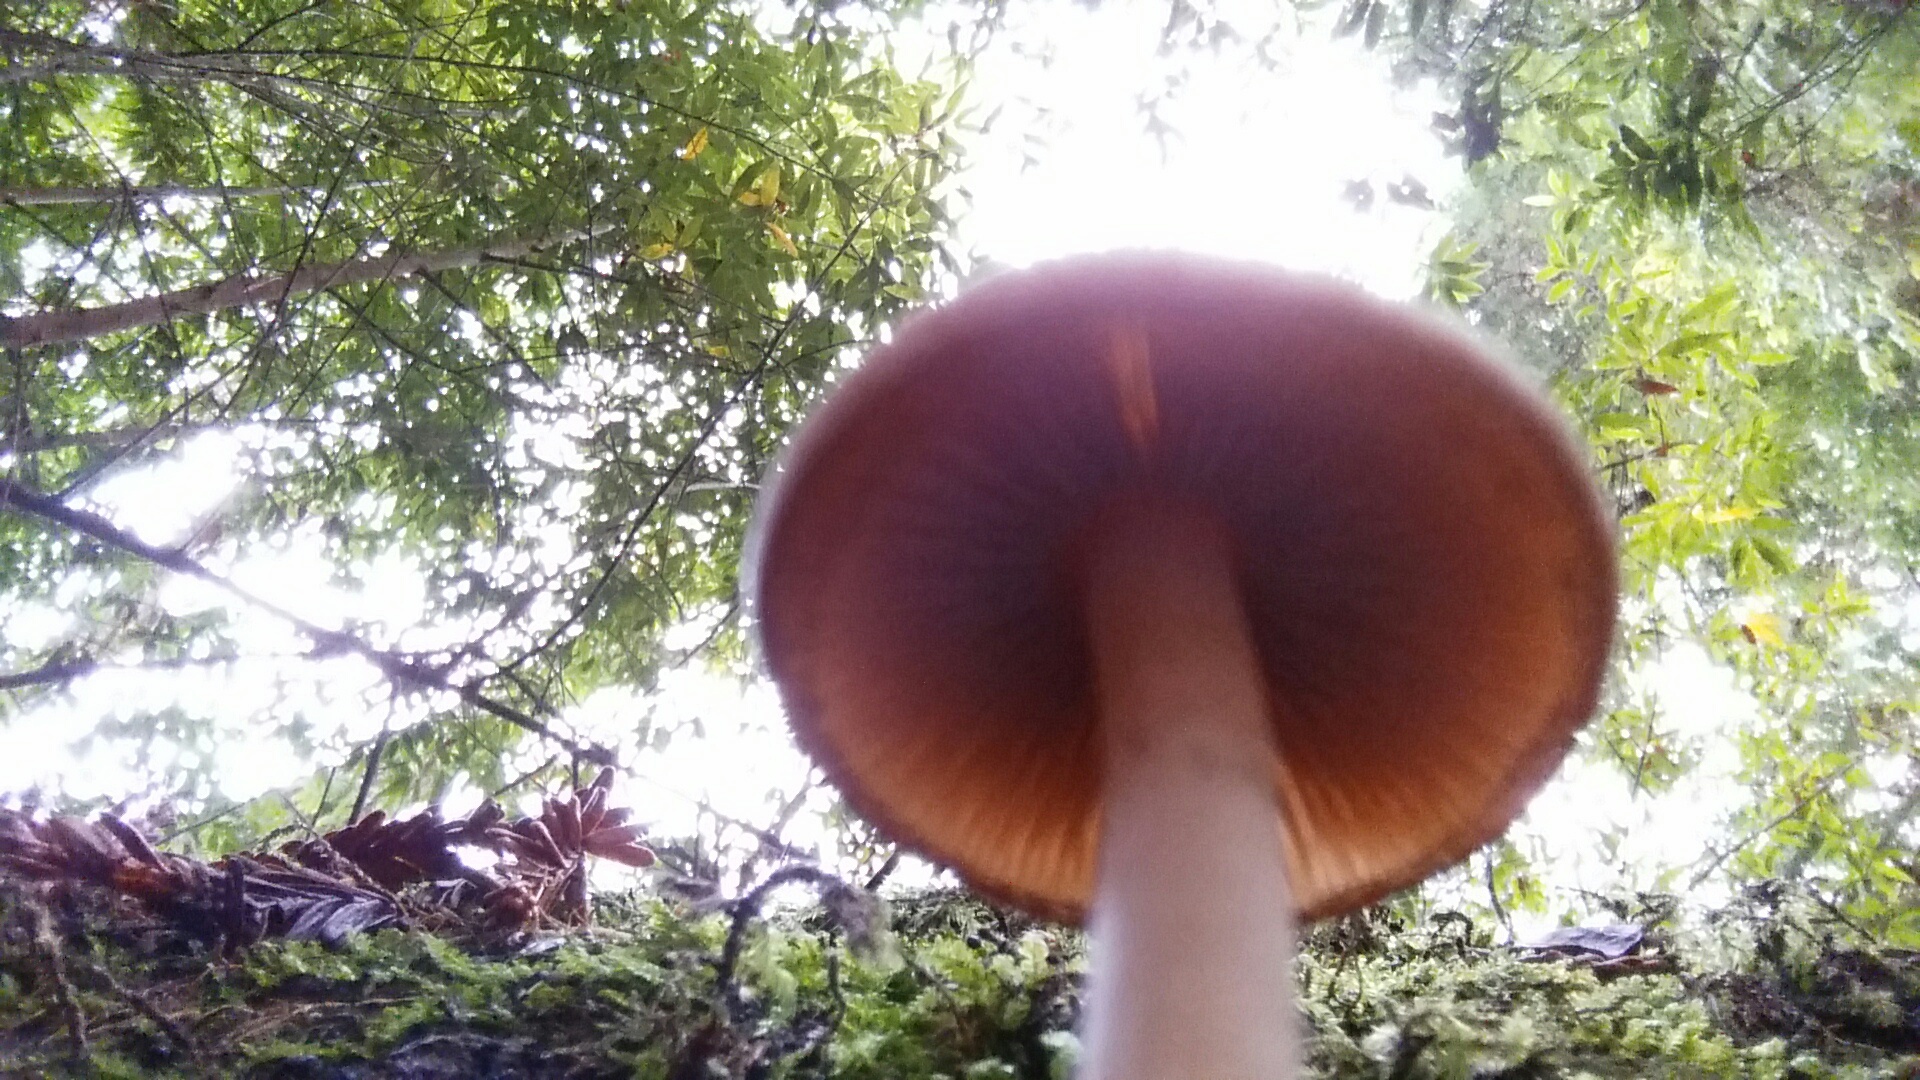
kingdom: Fungi
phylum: Basidiomycota
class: Agaricomycetes
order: Agaricales
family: Psathyrellaceae
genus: Psathyrella
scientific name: Psathyrella piluliformis
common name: Common stump brittlestem
